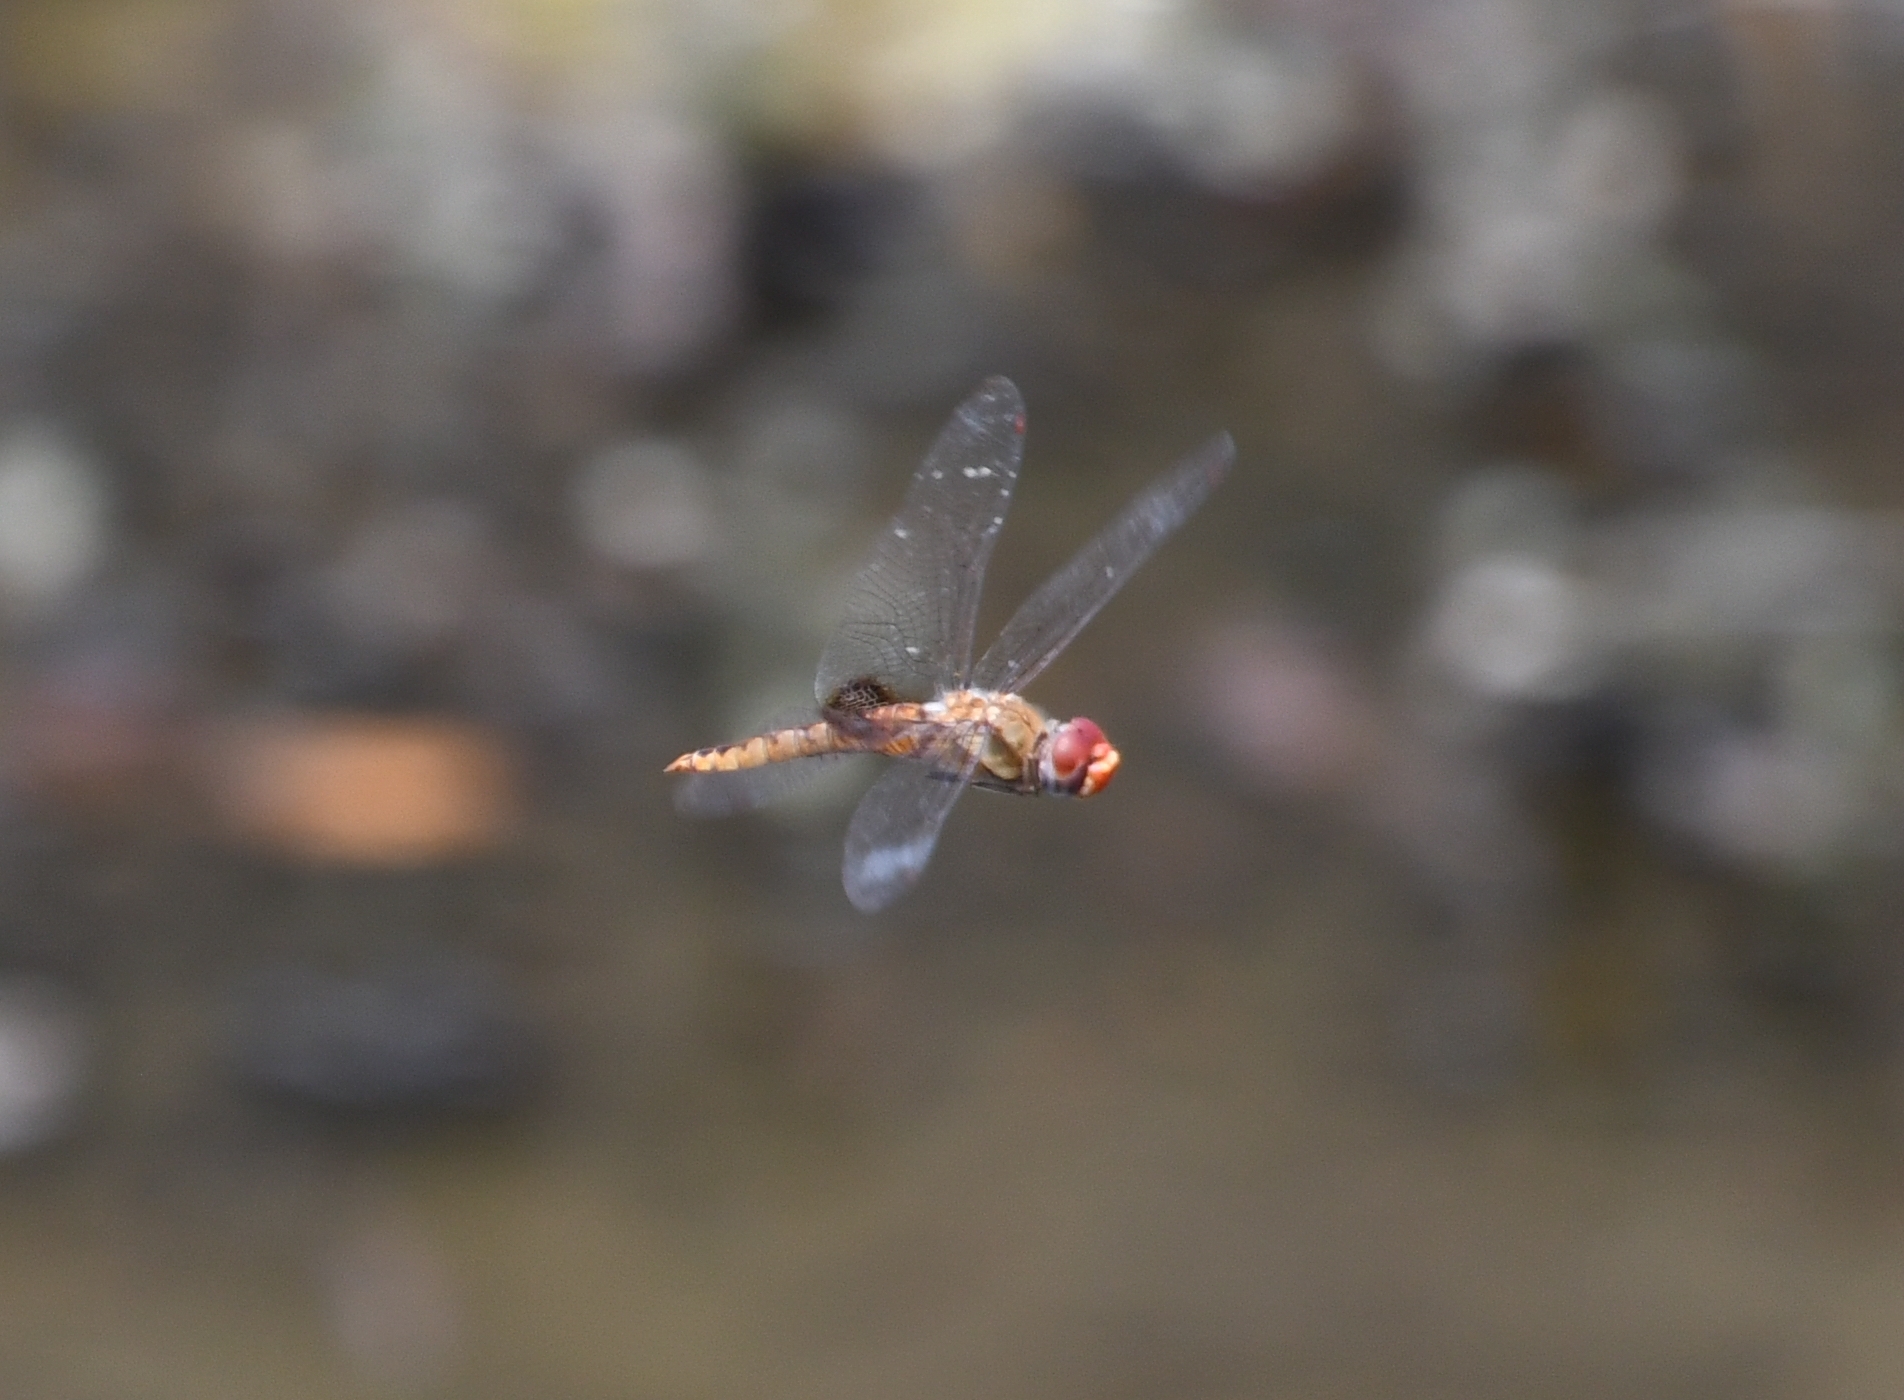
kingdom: Animalia
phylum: Arthropoda
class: Insecta
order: Odonata
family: Libellulidae
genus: Pantala
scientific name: Pantala hymenaea
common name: Spot-winged glider
